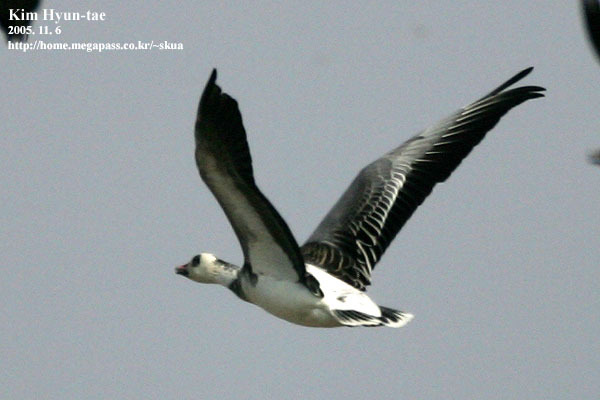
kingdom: Animalia
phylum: Chordata
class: Aves
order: Anseriformes
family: Anatidae
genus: Anser
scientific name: Anser caerulescens
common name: Snow goose
